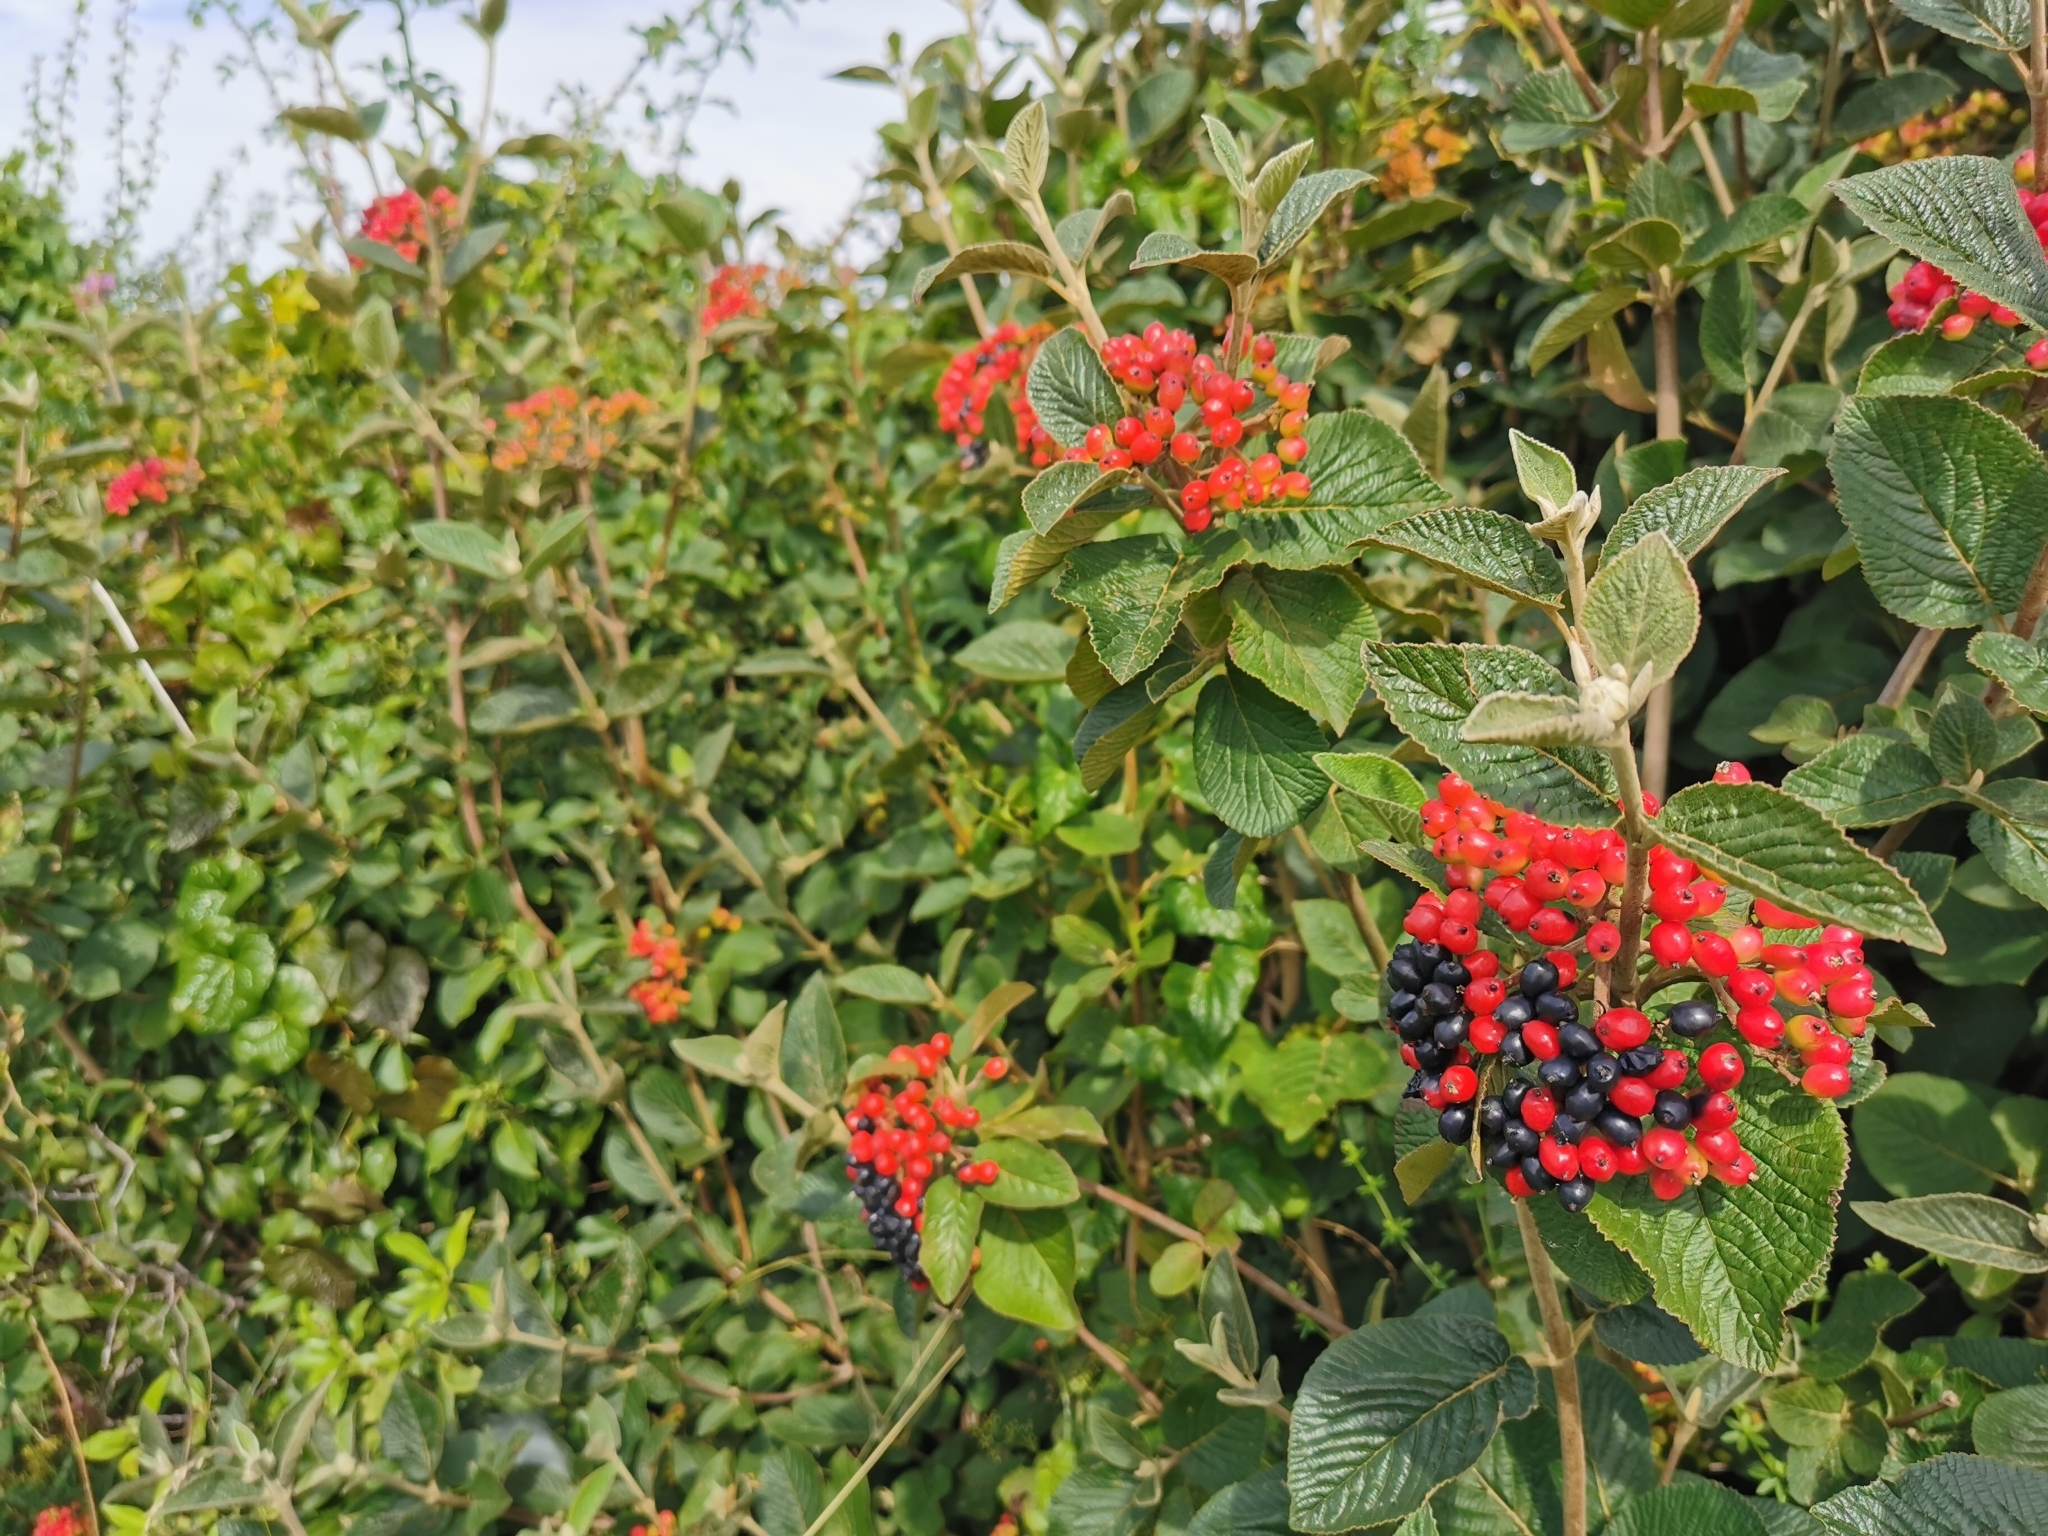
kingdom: Plantae
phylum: Tracheophyta
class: Magnoliopsida
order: Dipsacales
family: Viburnaceae
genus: Viburnum
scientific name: Viburnum lantana
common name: Wayfaring tree
